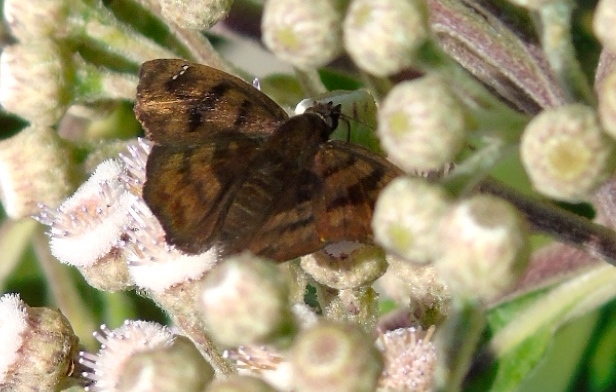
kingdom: Animalia
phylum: Arthropoda
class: Insecta
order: Lepidoptera
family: Hesperiidae
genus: Nisoniades
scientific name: Nisoniades
